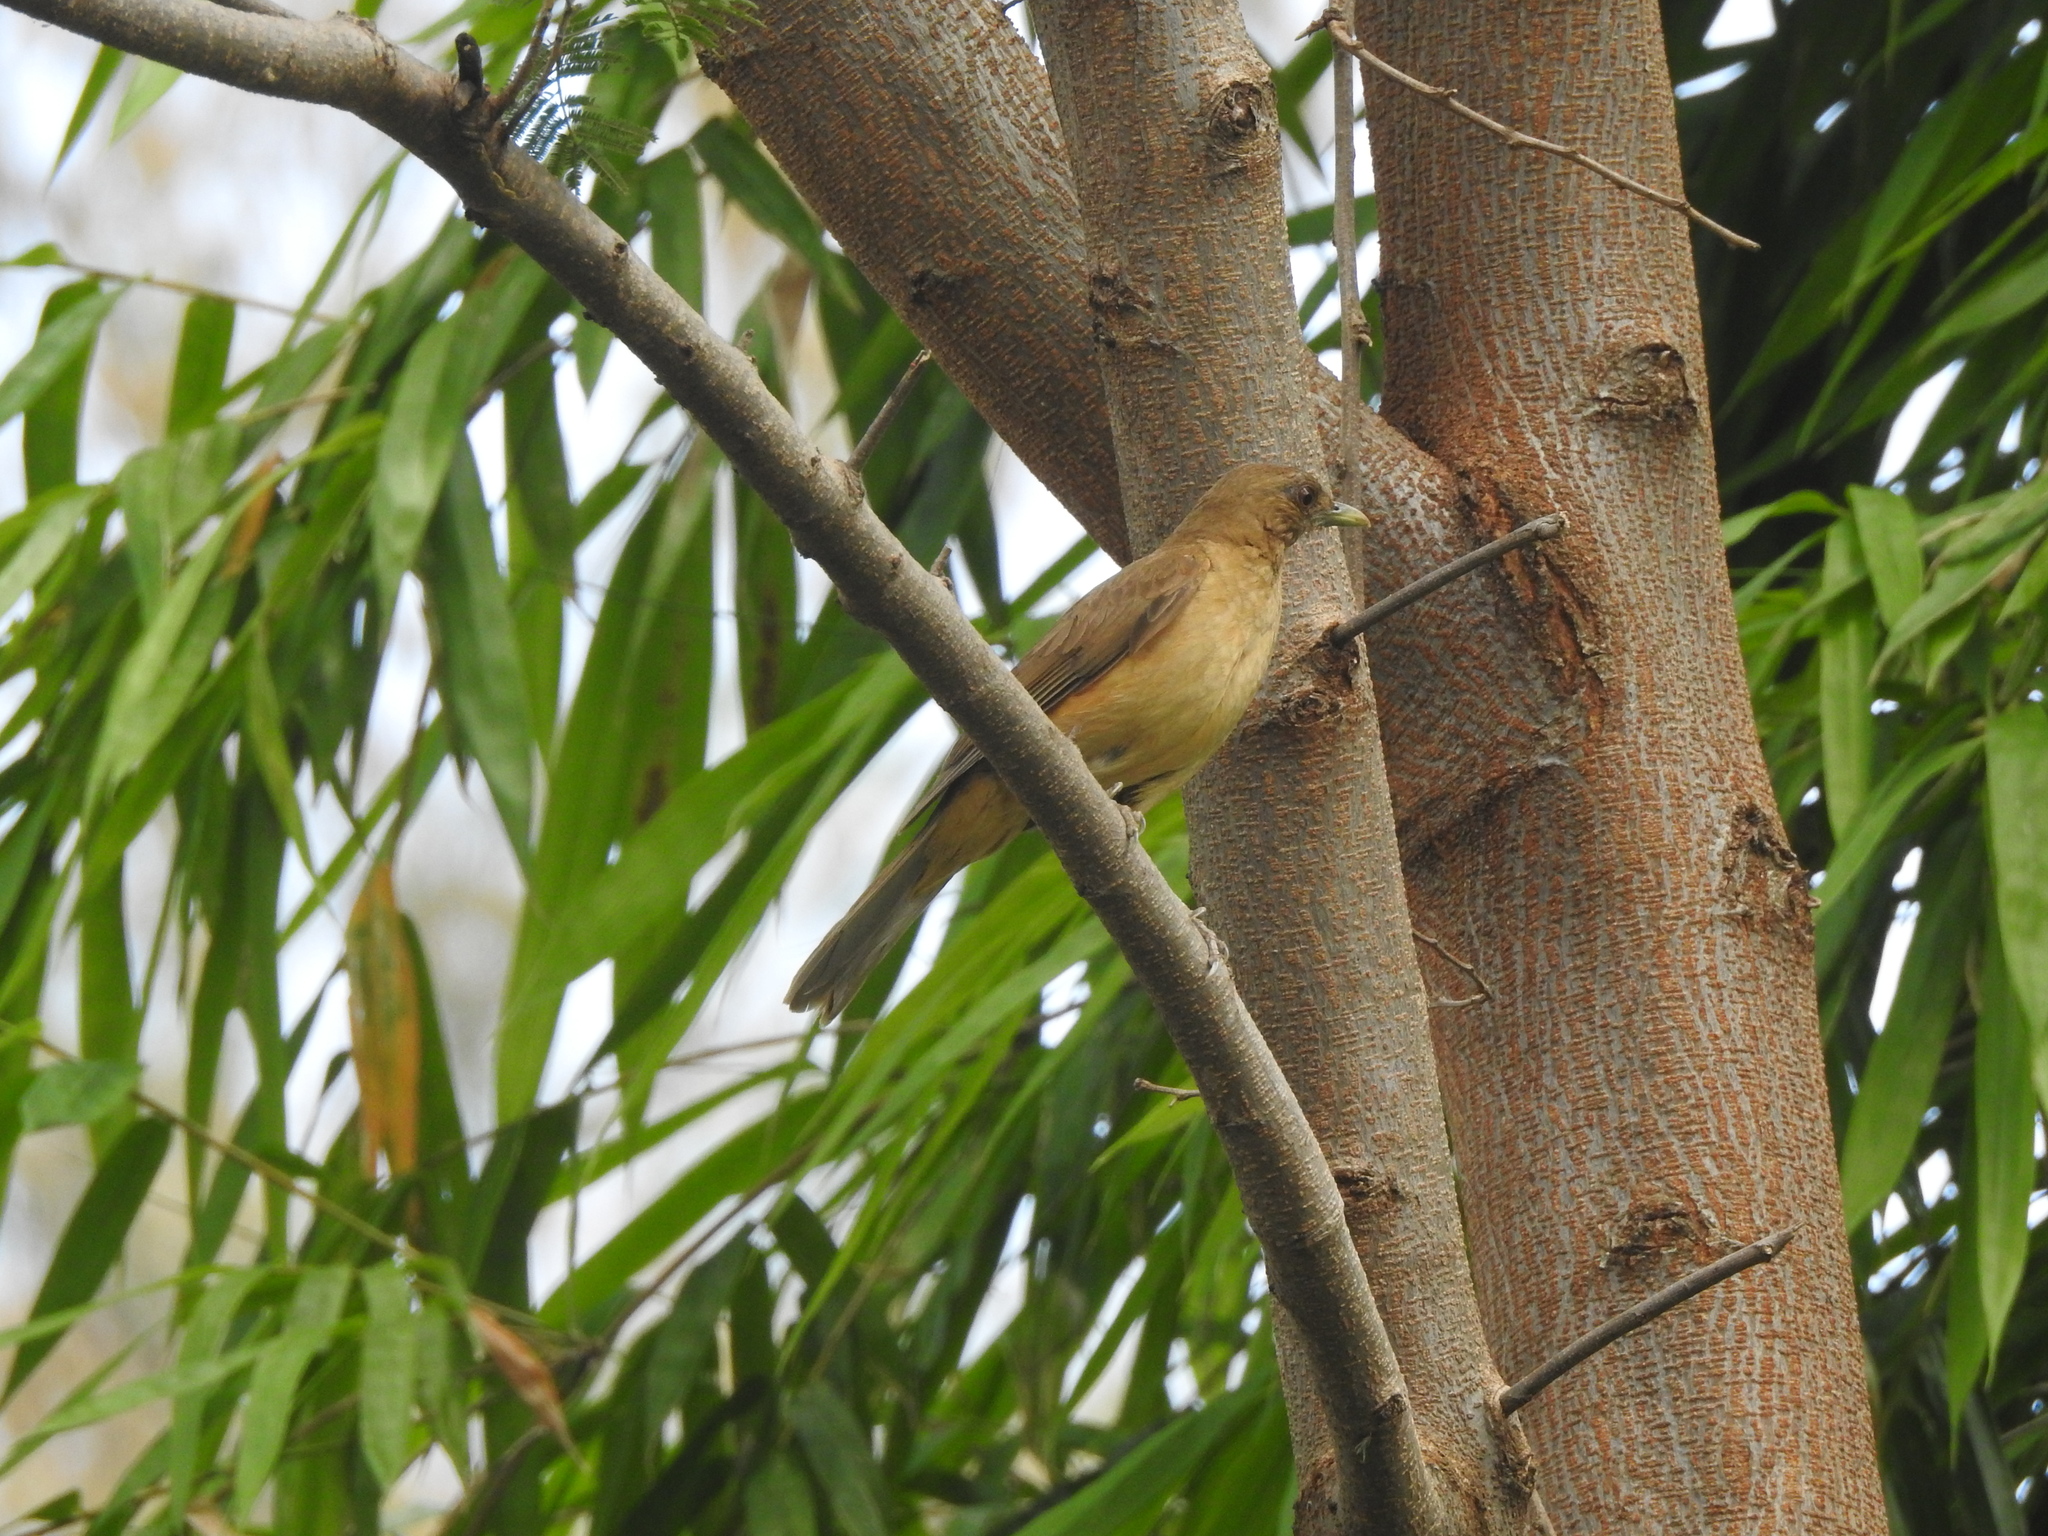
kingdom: Animalia
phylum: Chordata
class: Aves
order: Passeriformes
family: Turdidae
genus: Turdus
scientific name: Turdus grayi
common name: Clay-colored thrush
